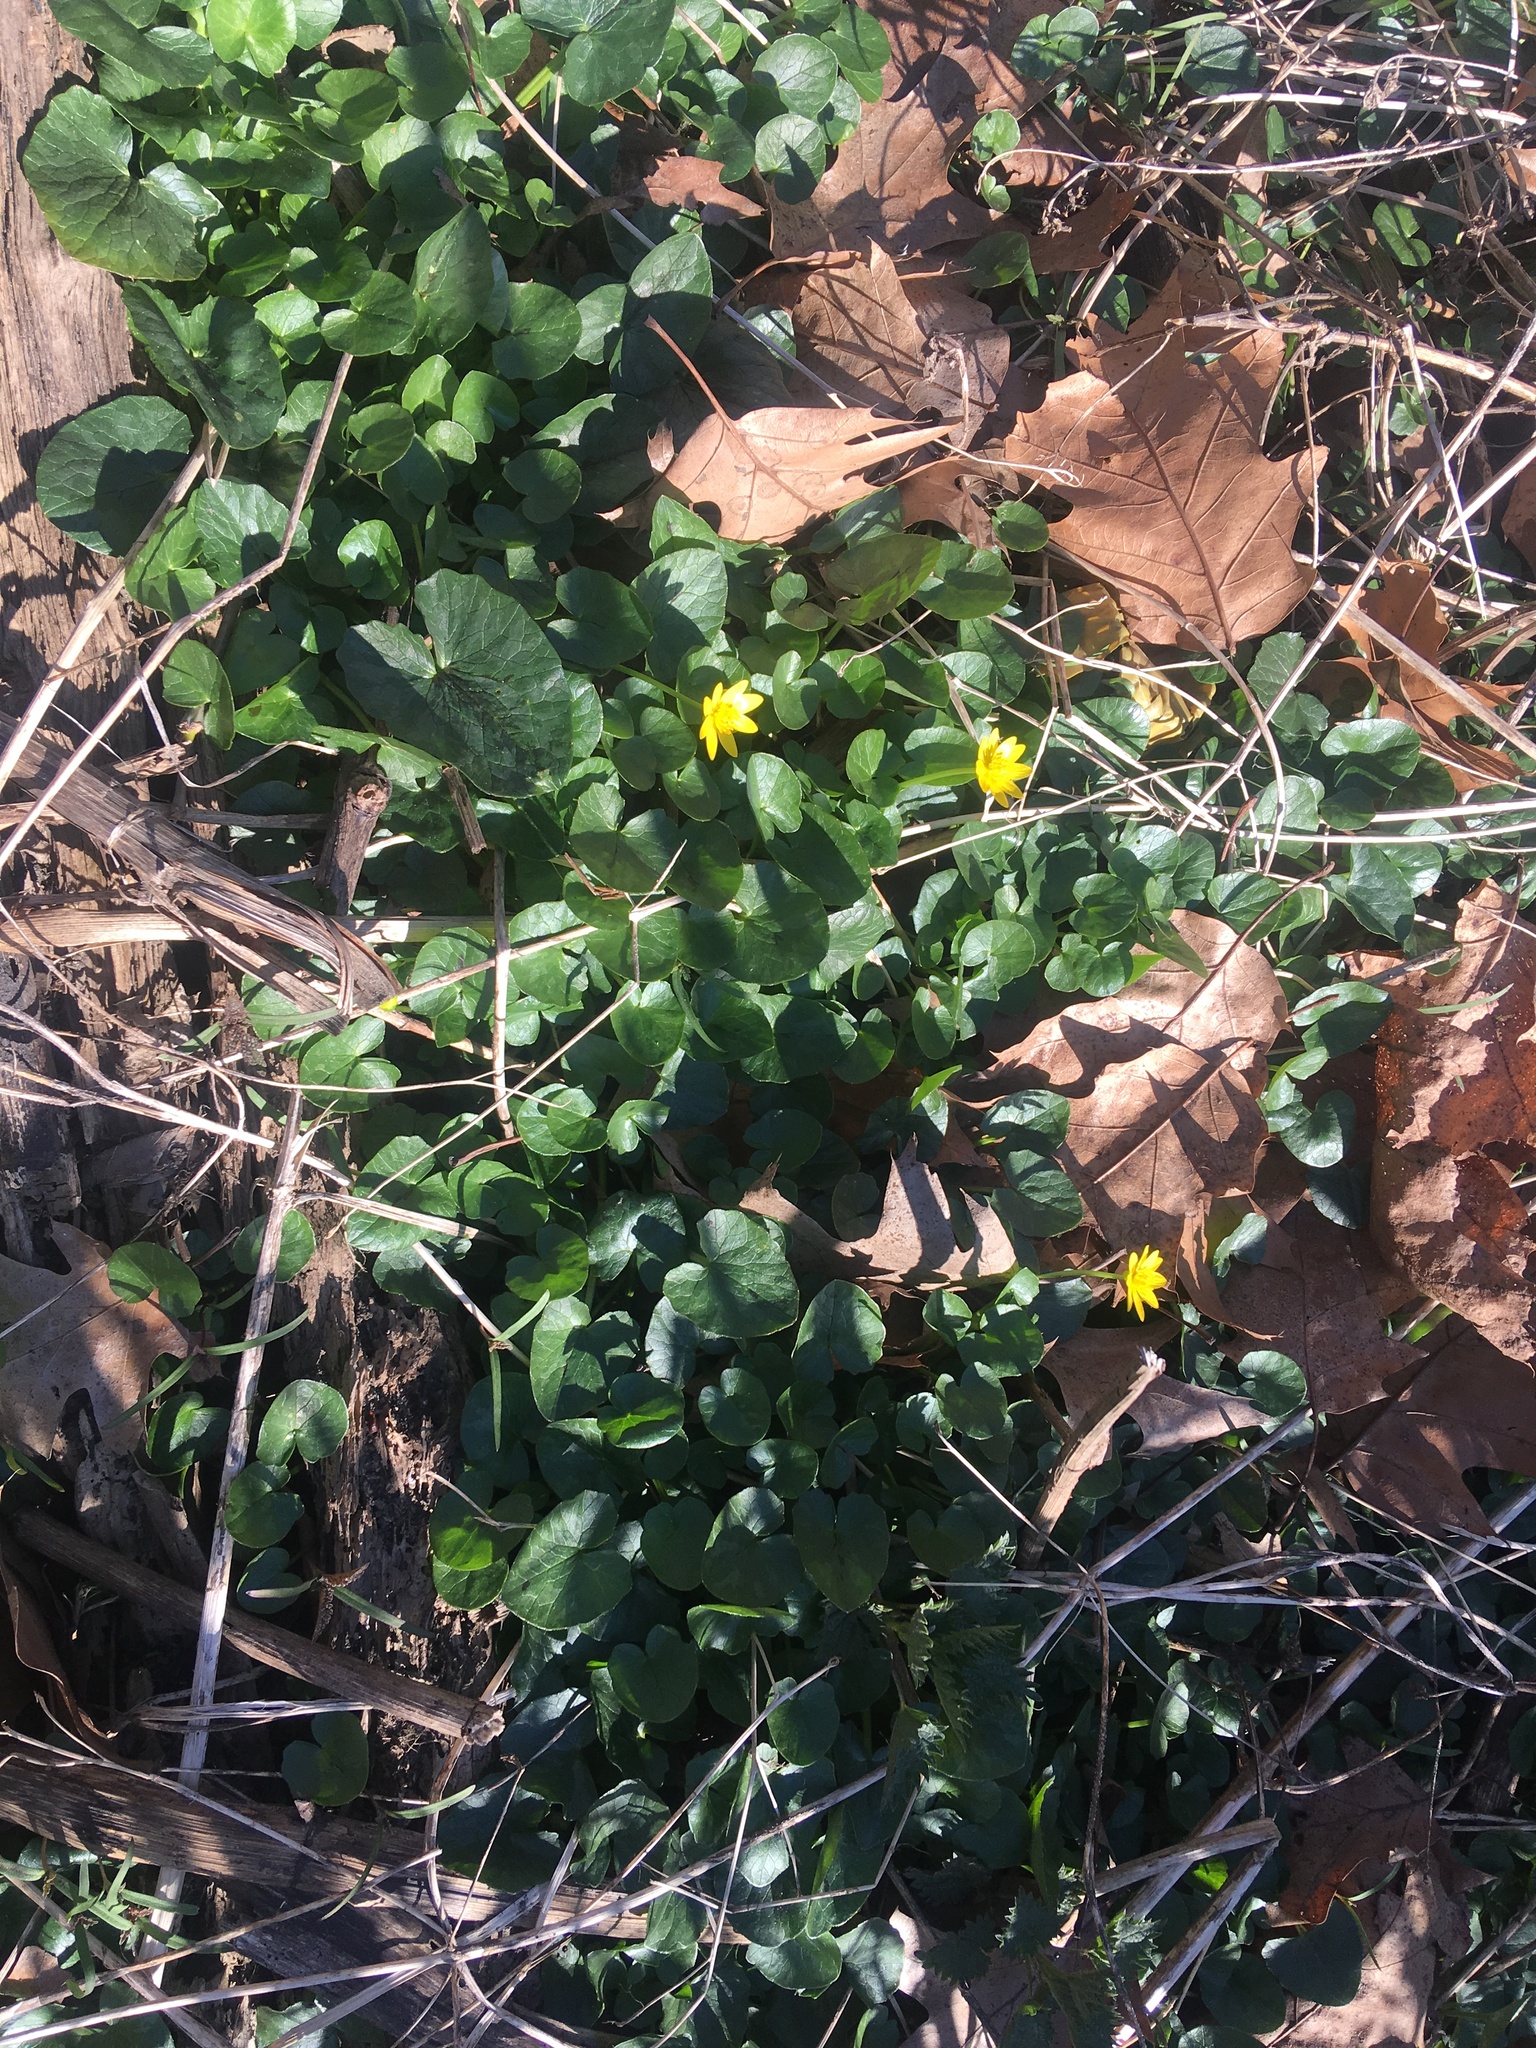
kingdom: Plantae
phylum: Tracheophyta
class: Magnoliopsida
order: Ranunculales
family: Ranunculaceae
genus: Ficaria
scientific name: Ficaria verna
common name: Lesser celandine
